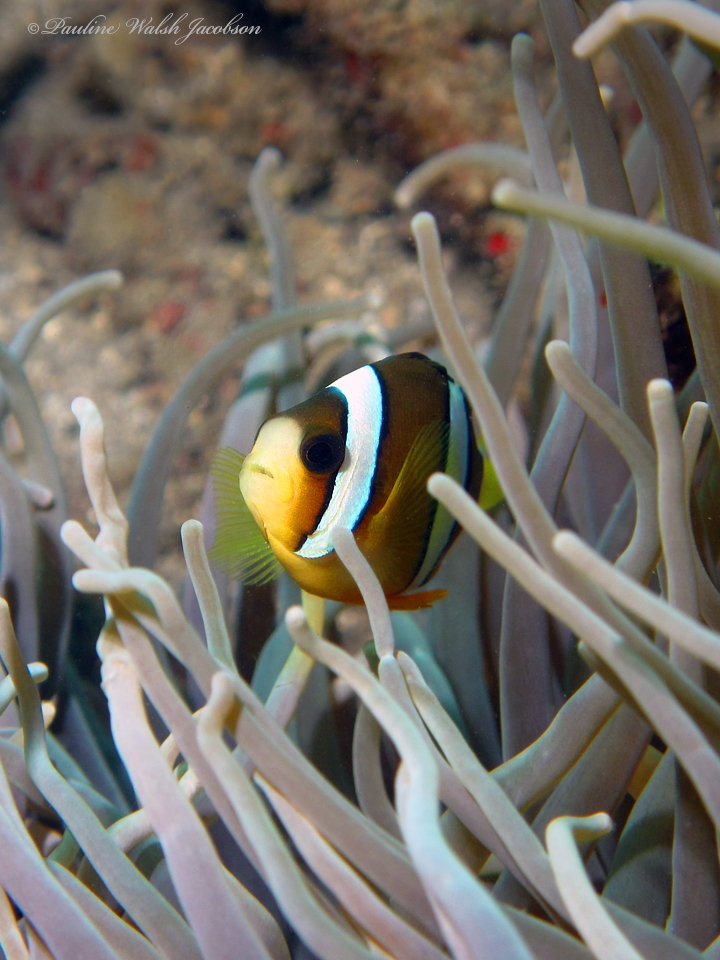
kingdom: Animalia
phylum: Chordata
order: Perciformes
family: Pomacentridae
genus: Amphiprion
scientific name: Amphiprion clarkii
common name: Clark's anemonefish
